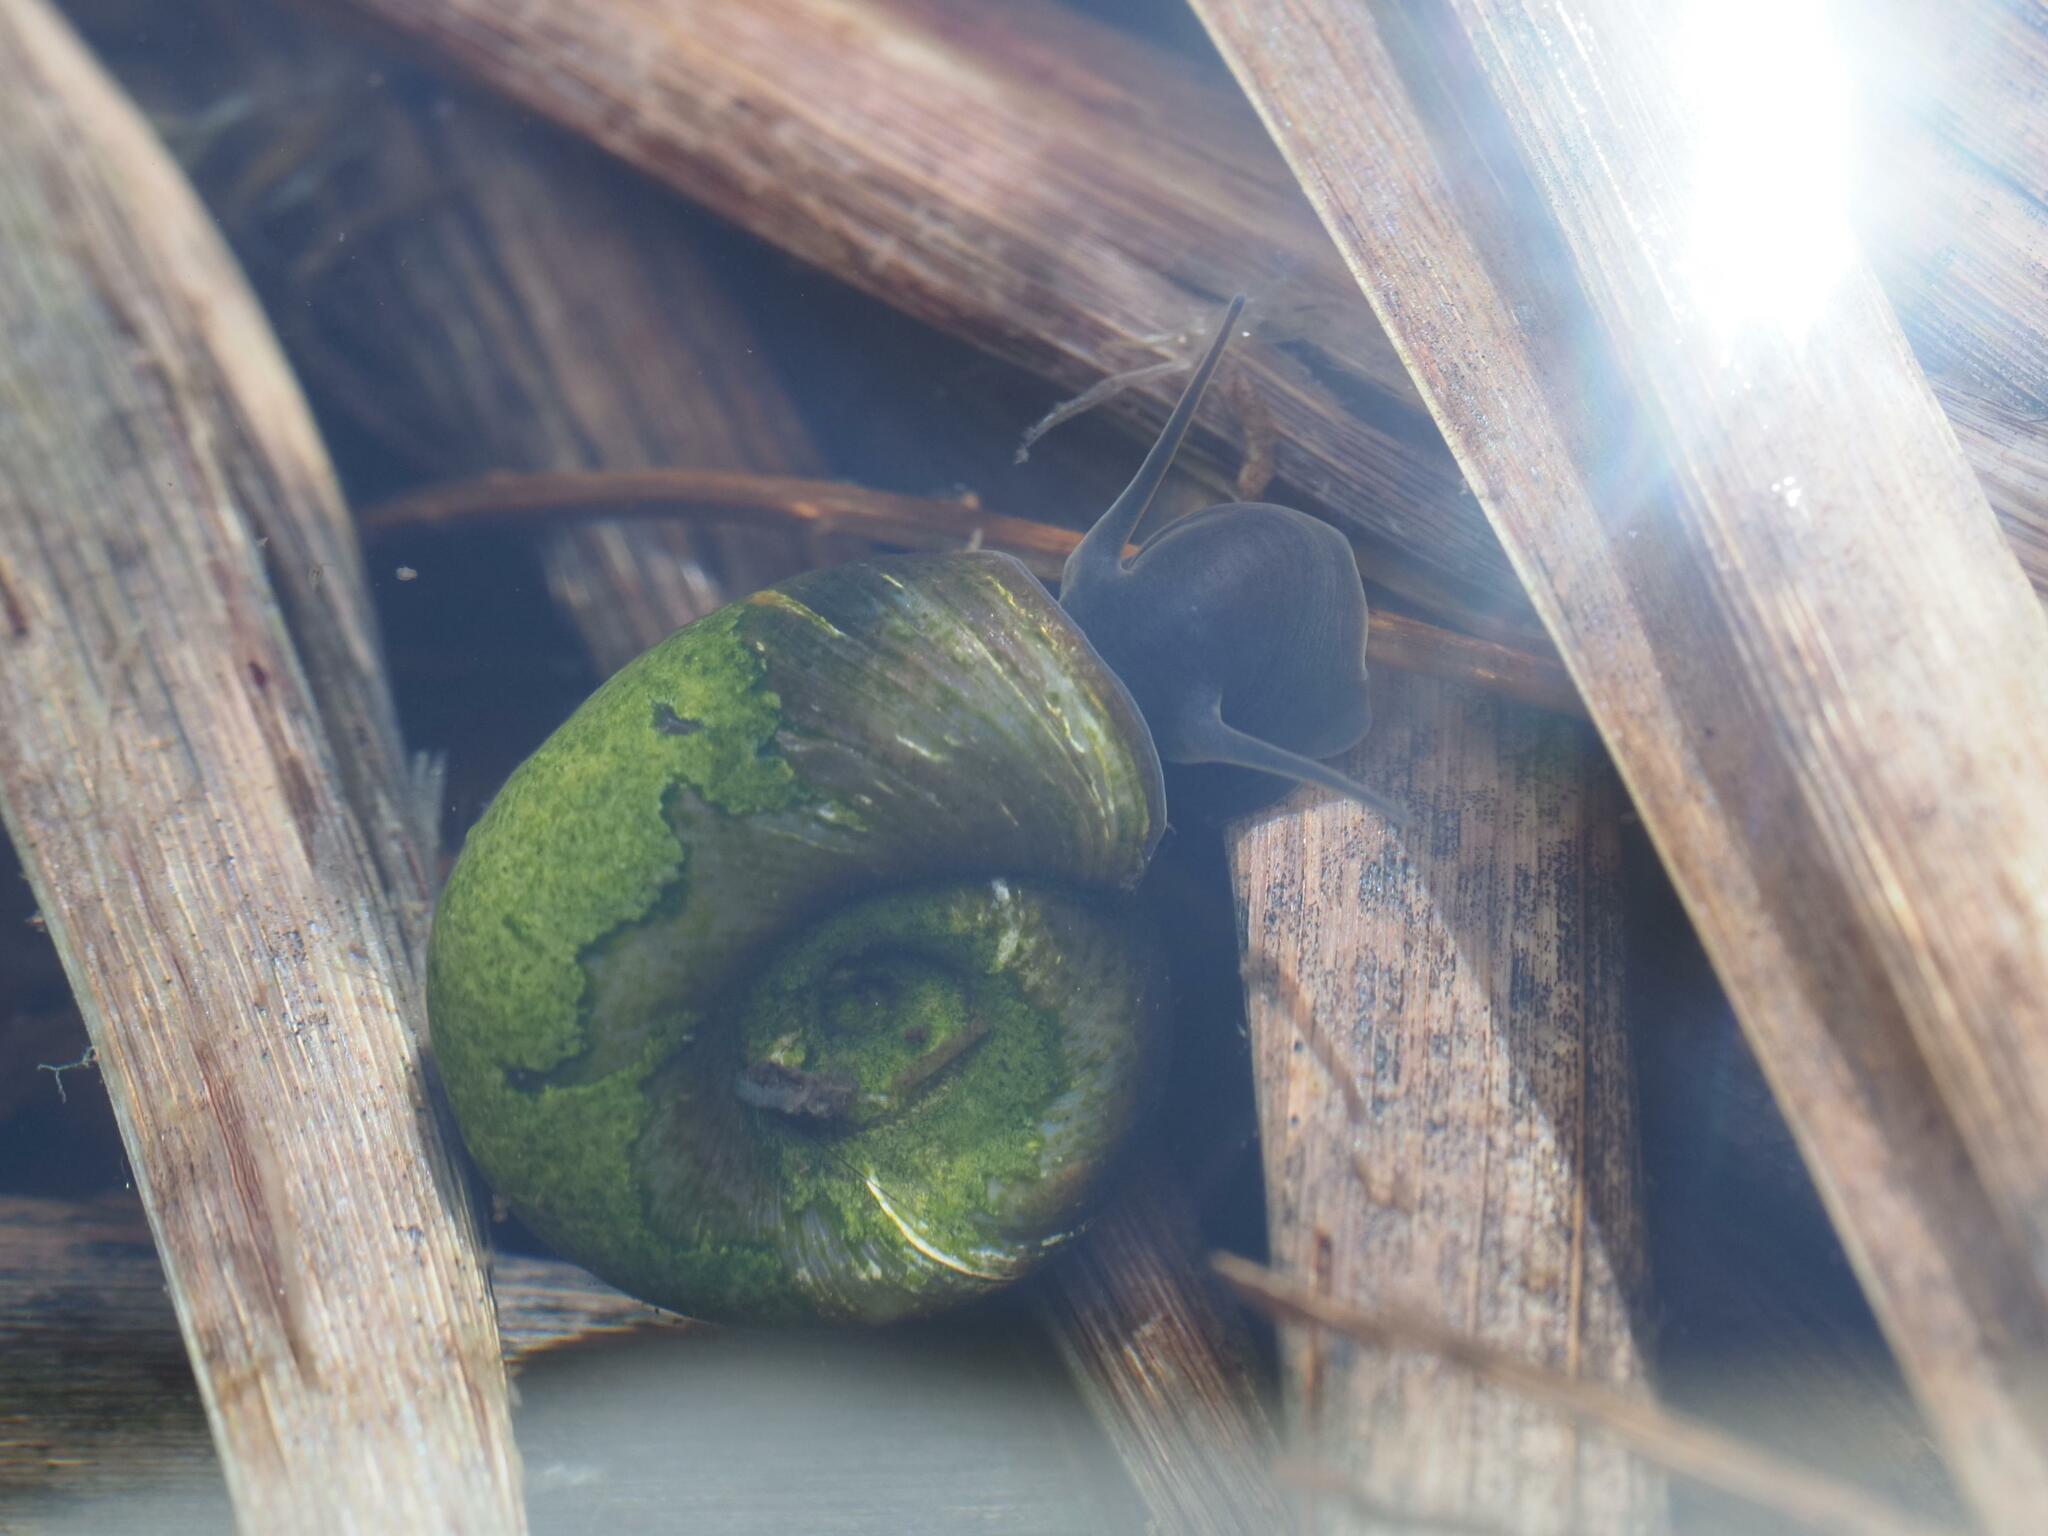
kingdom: Animalia
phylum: Mollusca
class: Gastropoda
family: Planorbidae
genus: Planorbarius
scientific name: Planorbarius corneus
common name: Great ramshorn
